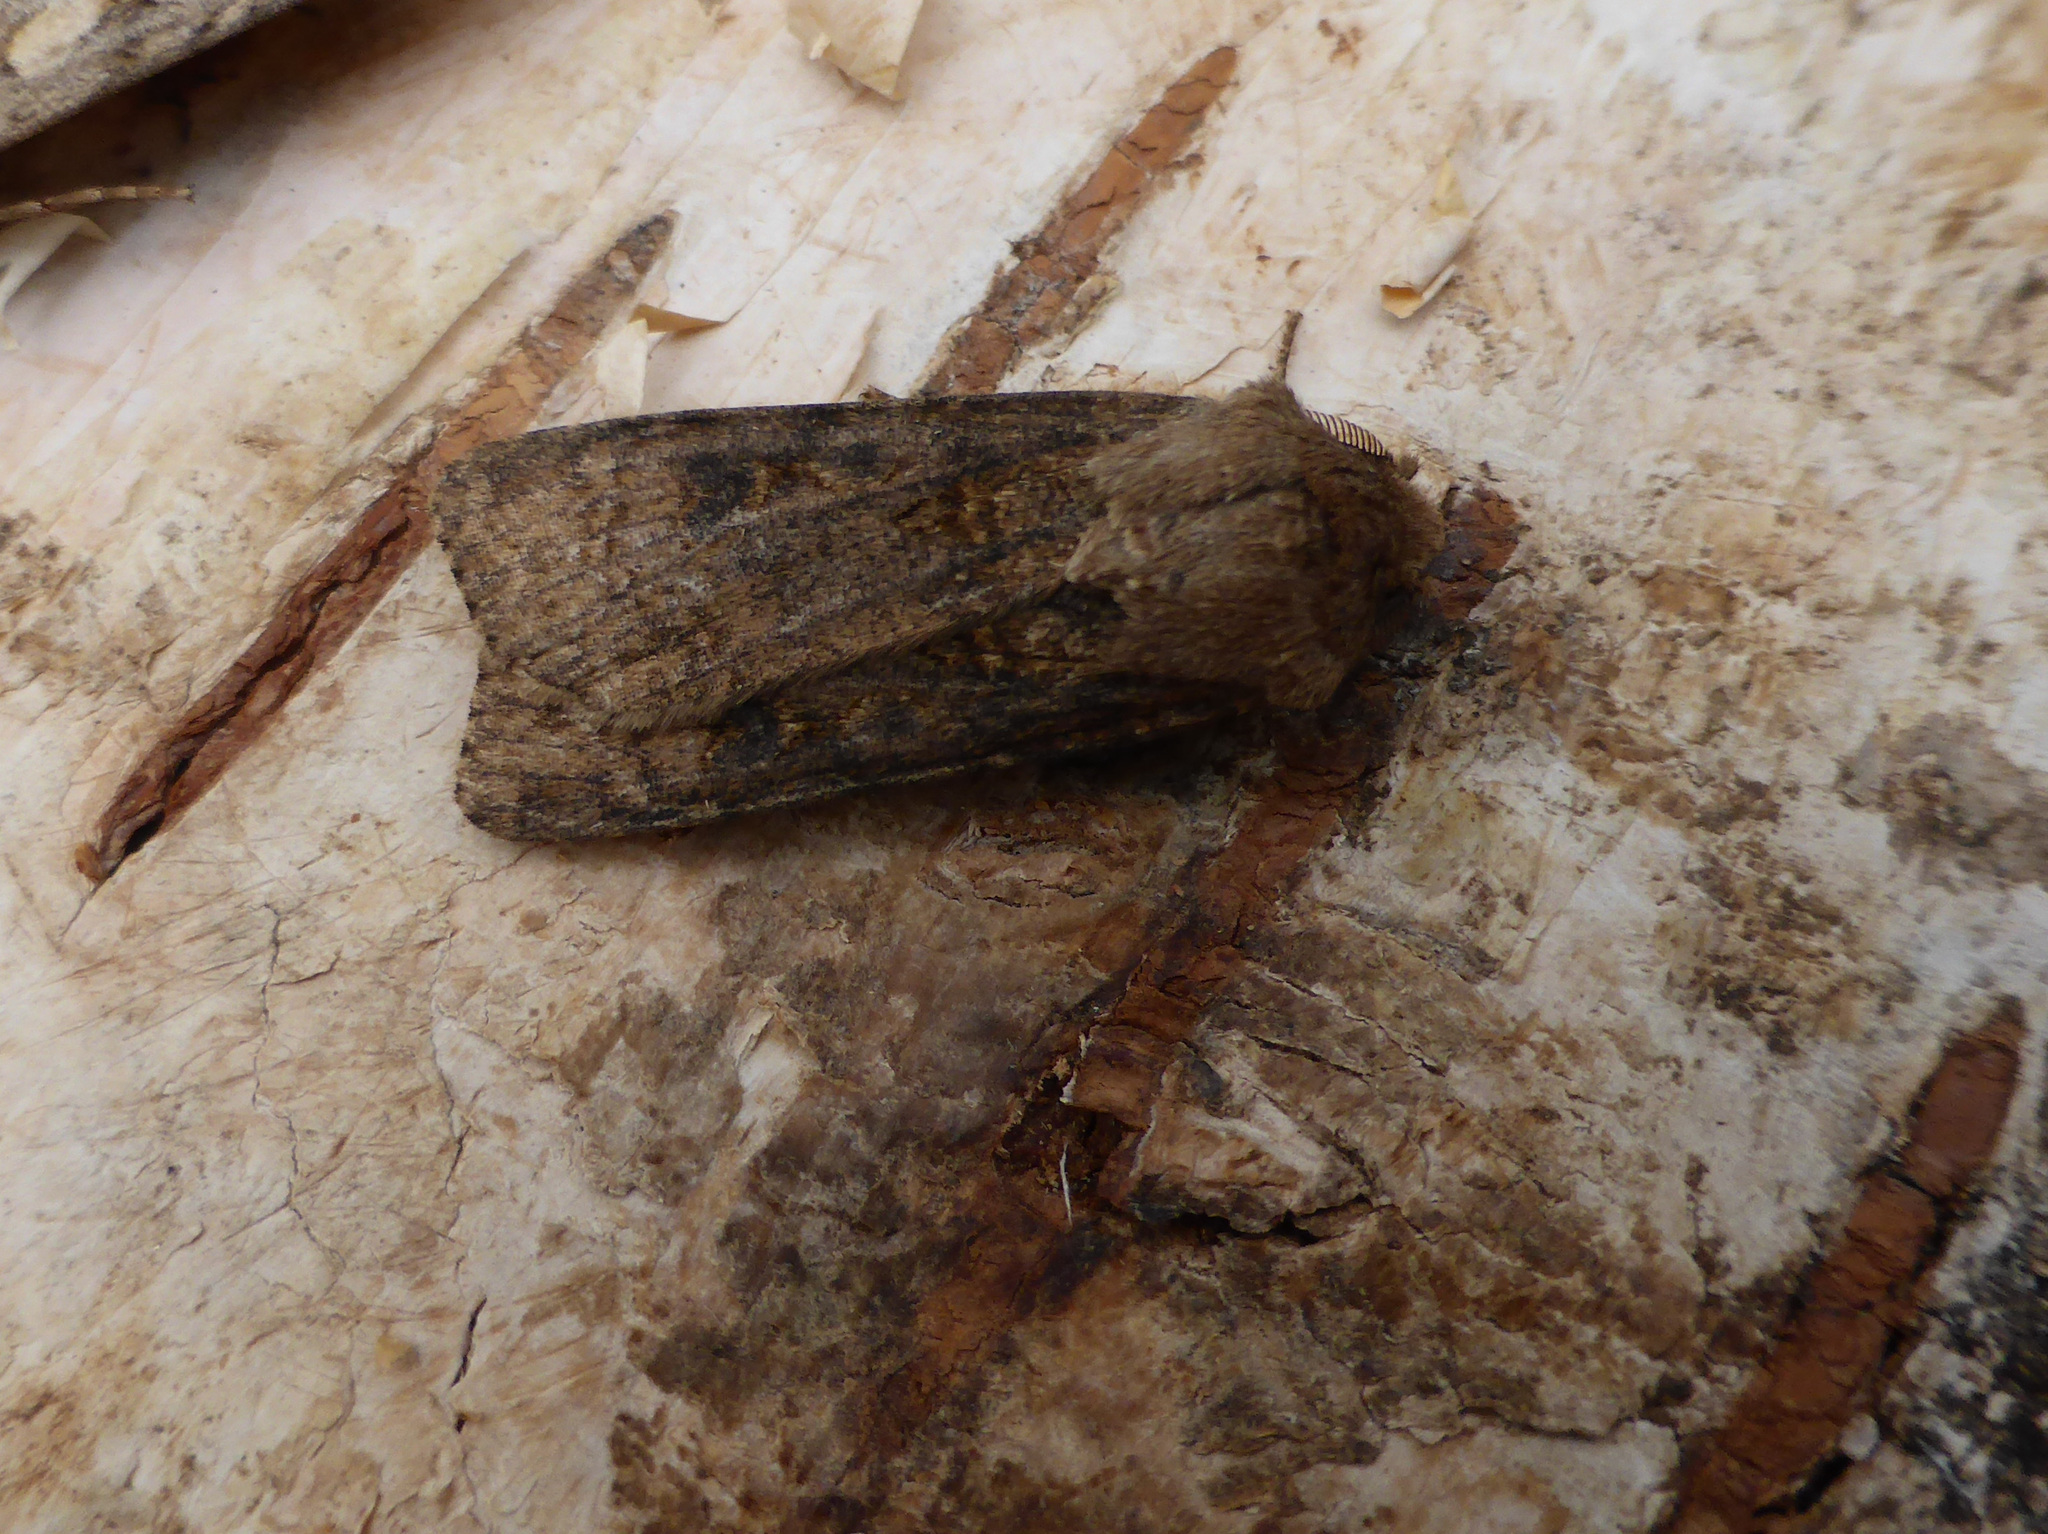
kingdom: Animalia
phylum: Arthropoda
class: Insecta
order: Lepidoptera
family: Noctuidae
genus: Agrotis
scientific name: Agrotis segetum
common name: Turnip moth
